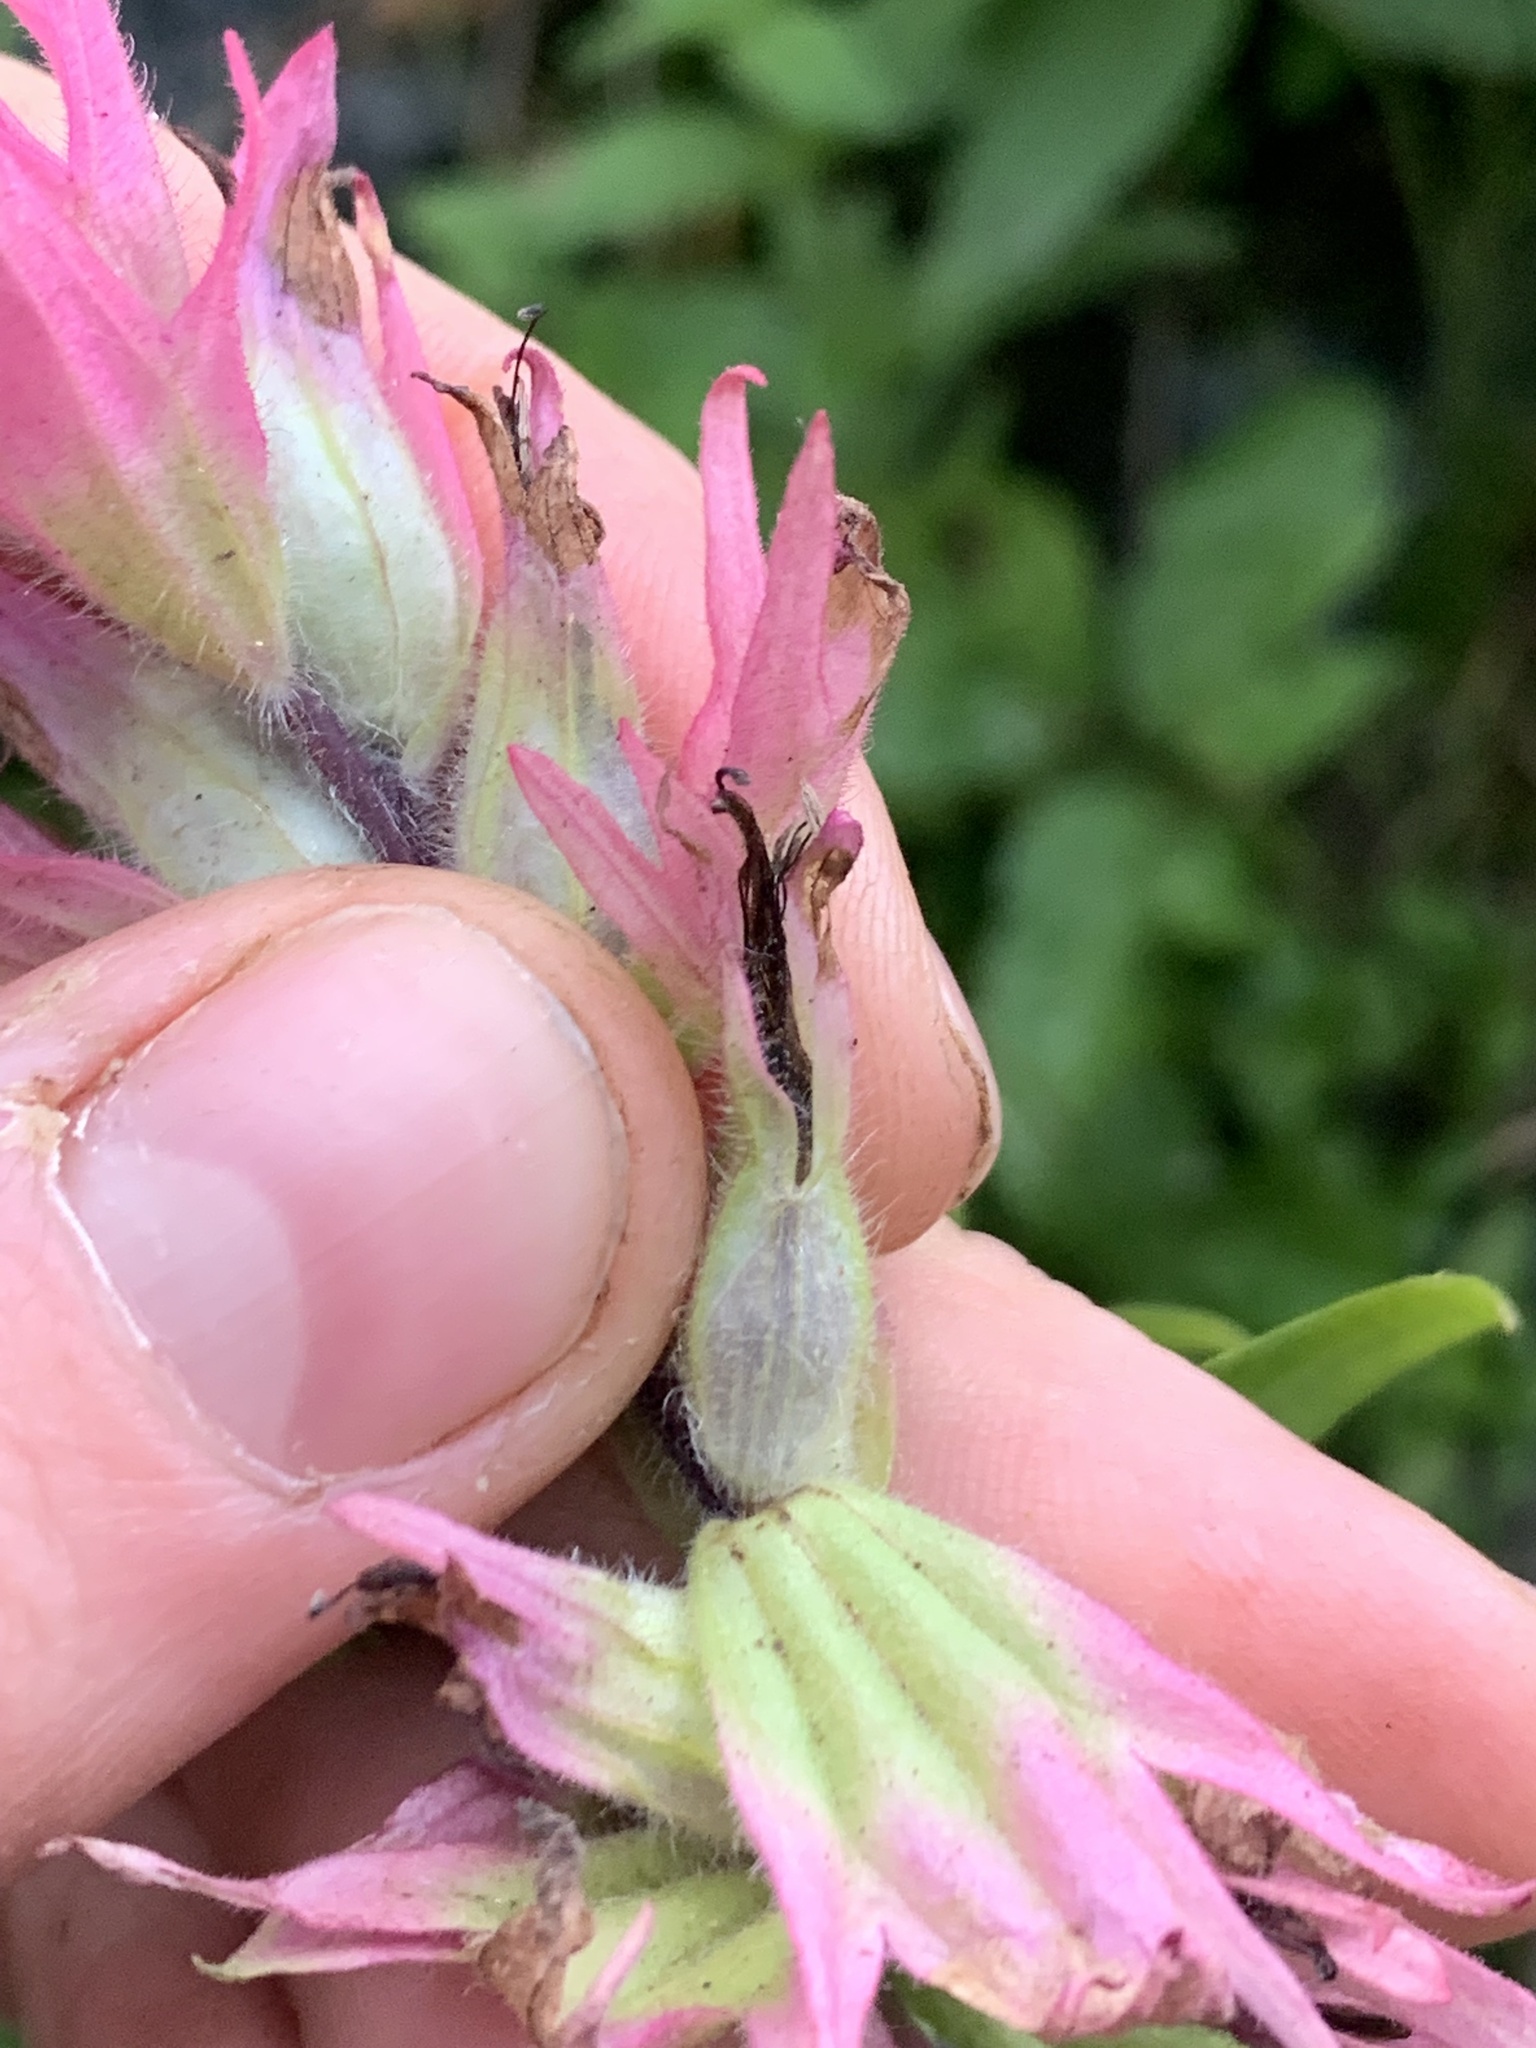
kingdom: Plantae
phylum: Tracheophyta
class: Magnoliopsida
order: Lamiales
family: Orobanchaceae
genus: Castilleja
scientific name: Castilleja parviflora
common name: Mountain paintbrush
